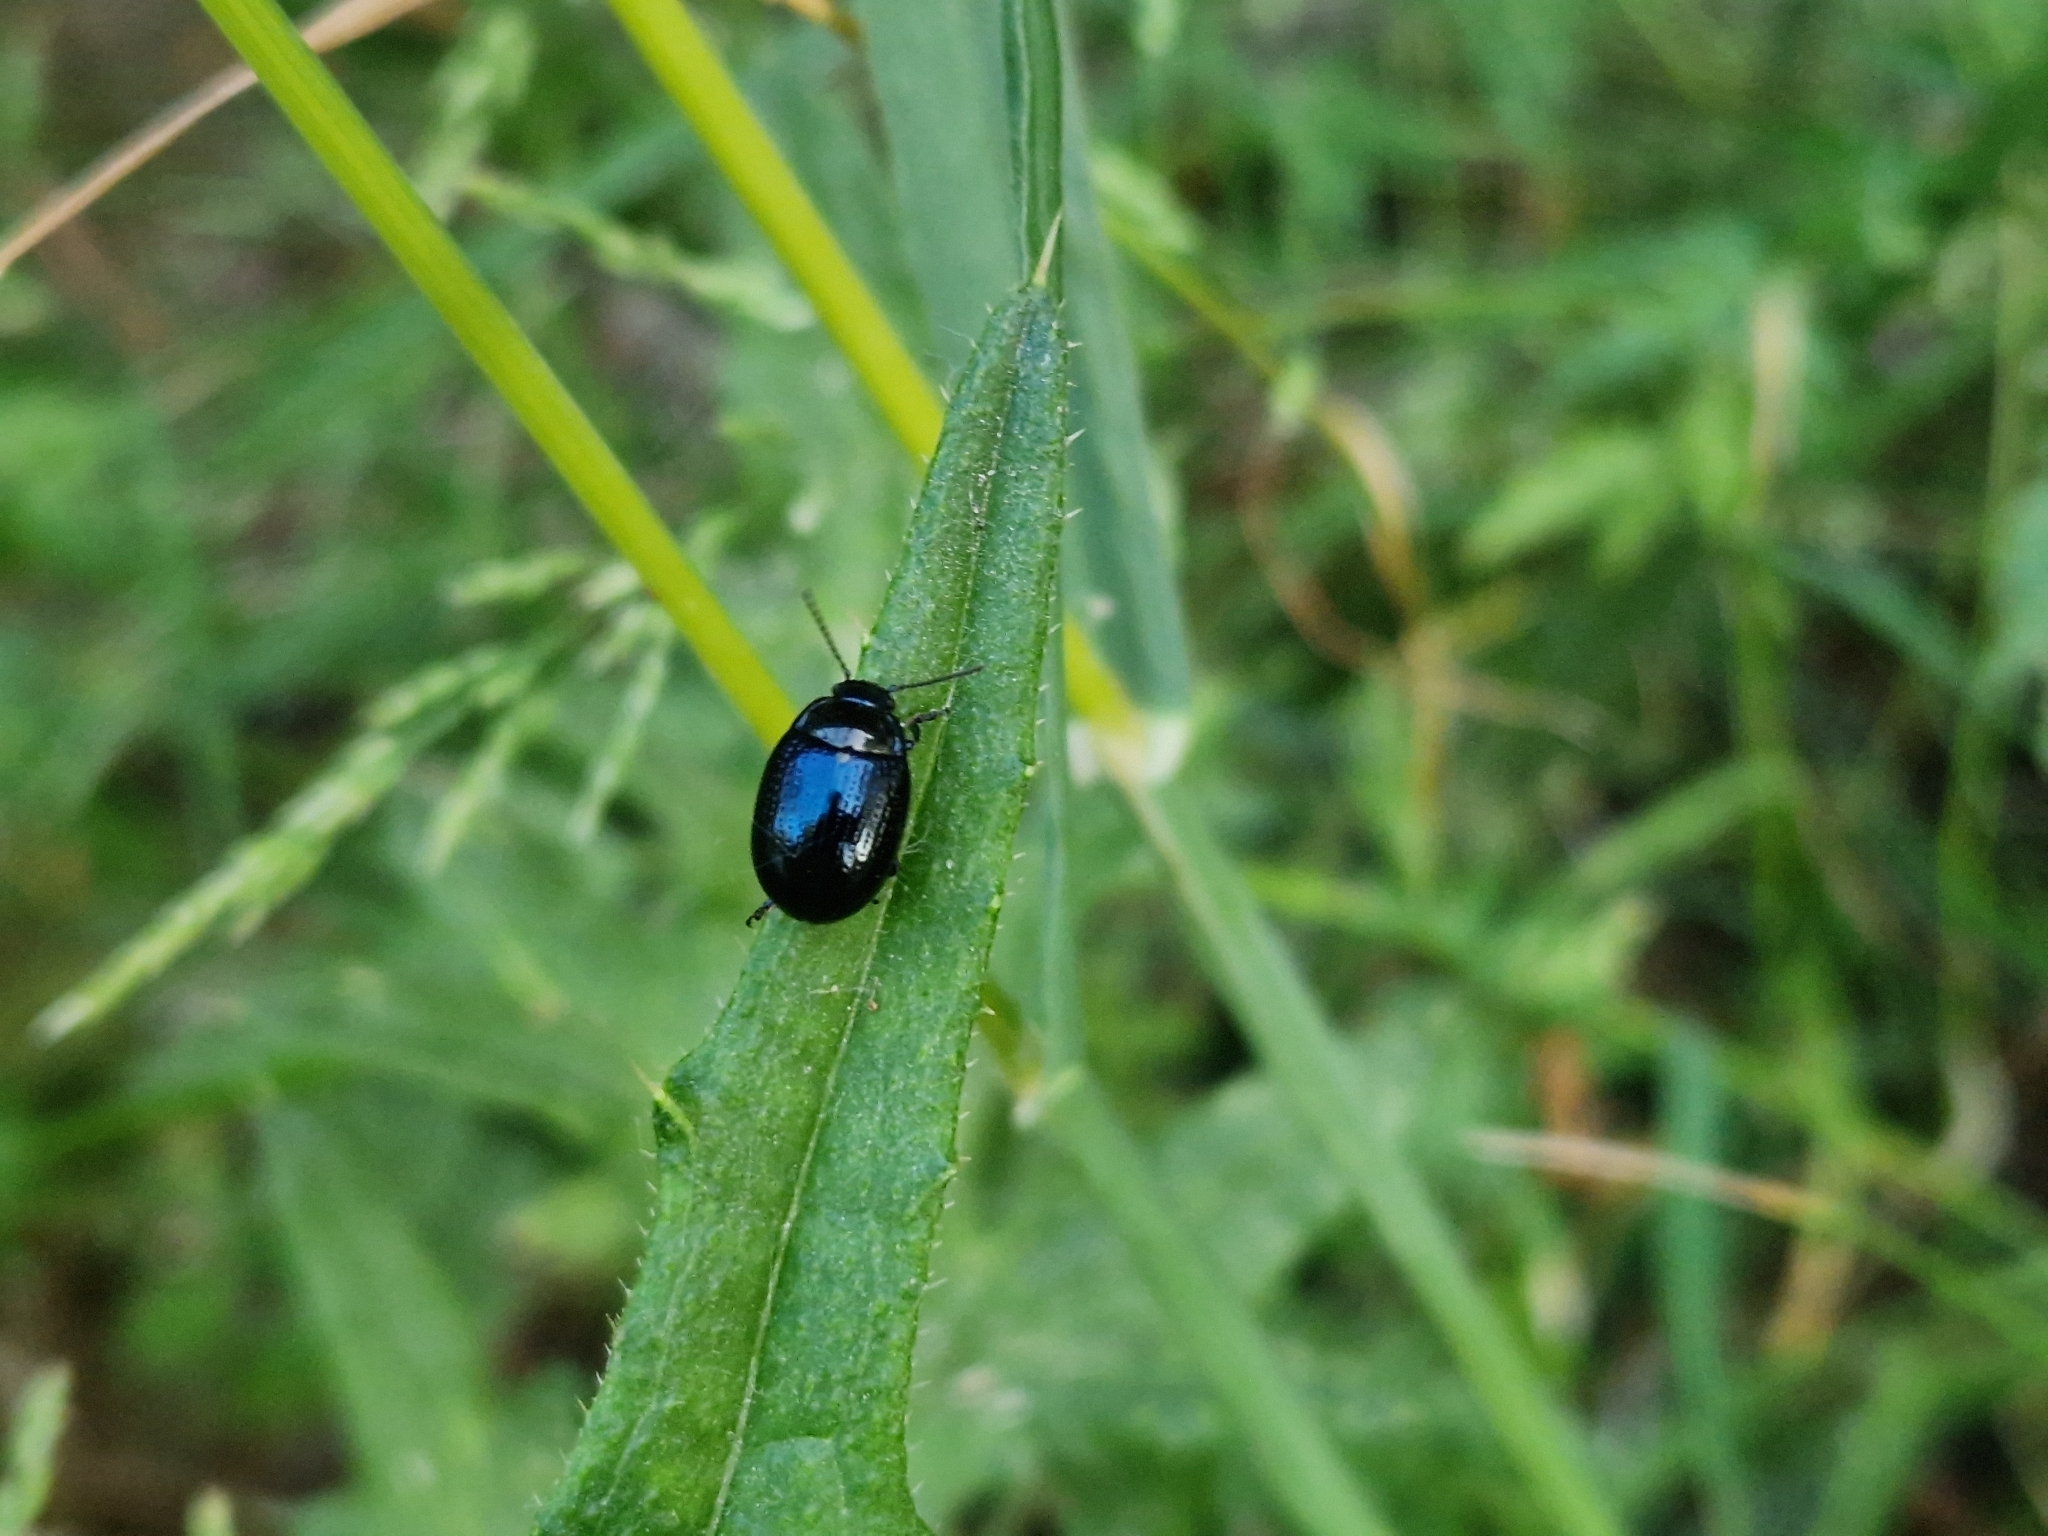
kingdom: Animalia
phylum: Arthropoda
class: Insecta
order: Coleoptera
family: Chrysomelidae
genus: Chrysolina
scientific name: Chrysolina oricalcia
